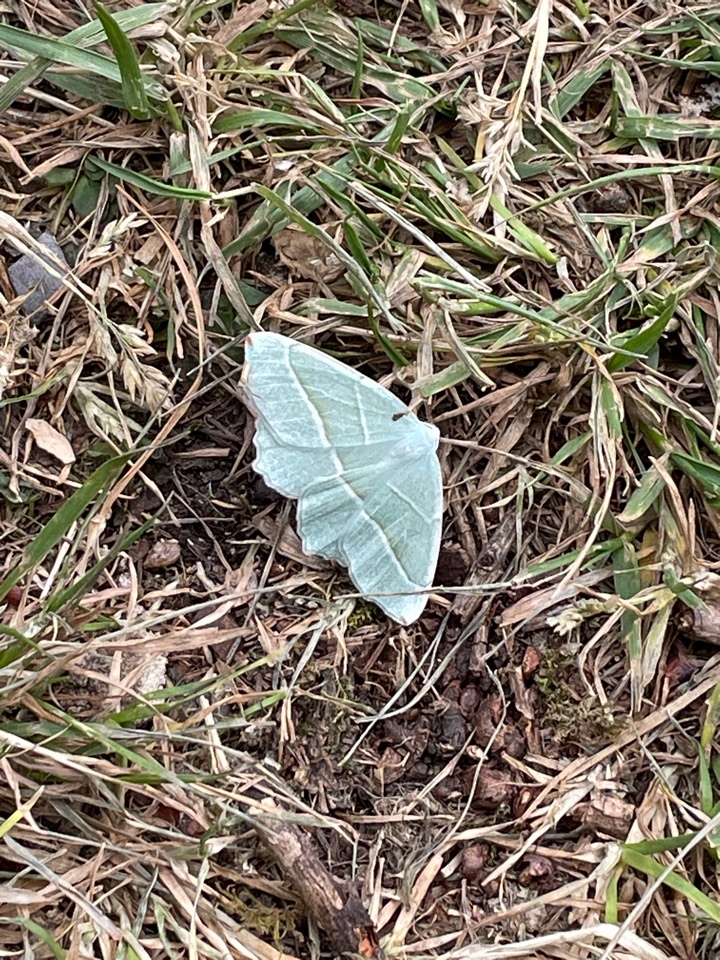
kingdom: Animalia
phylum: Arthropoda
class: Insecta
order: Lepidoptera
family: Geometridae
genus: Campaea
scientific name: Campaea margaritaria
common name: Light emerald
